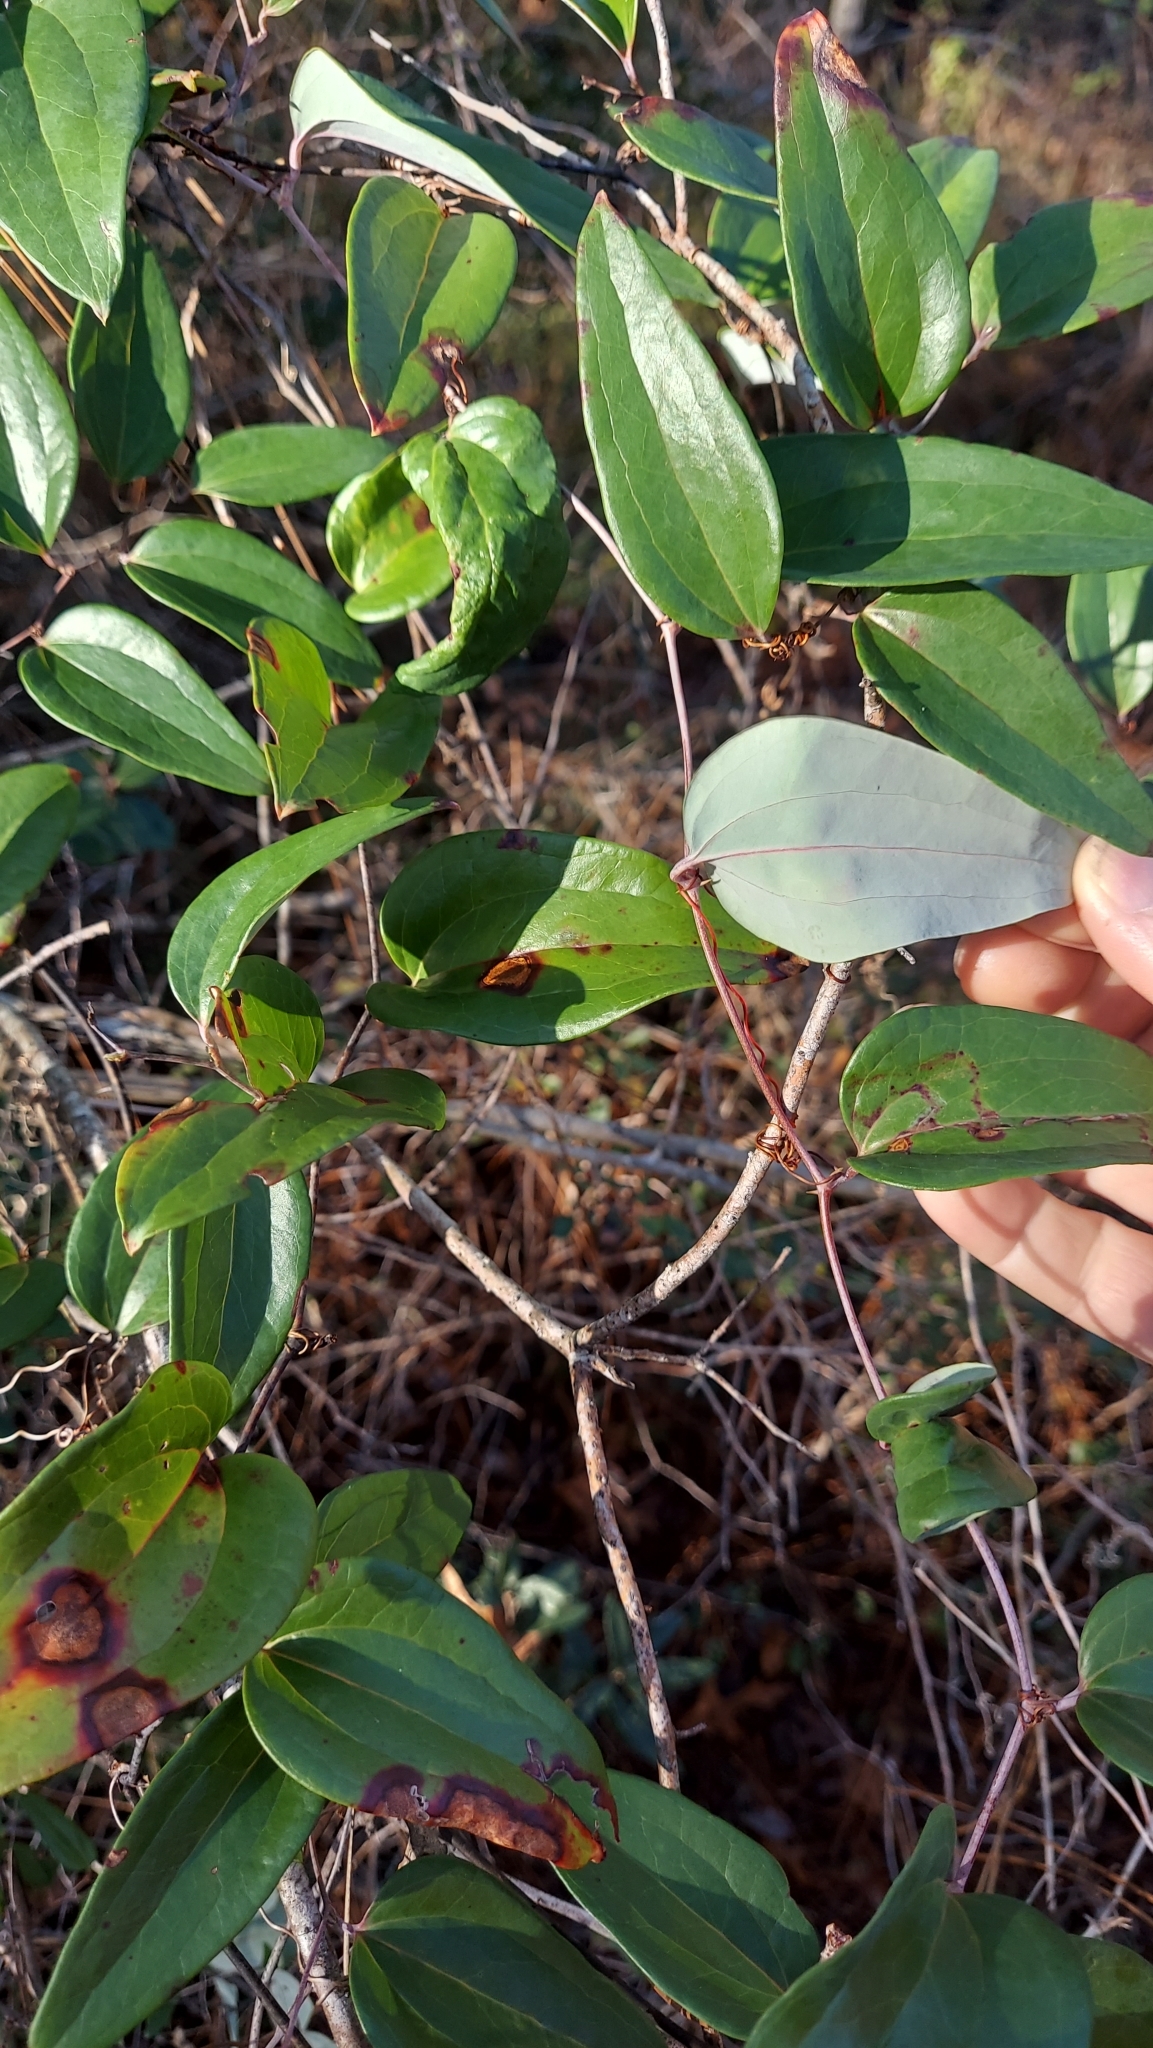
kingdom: Plantae
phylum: Tracheophyta
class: Liliopsida
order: Liliales
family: Smilacaceae
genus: Smilax
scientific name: Smilax glauca
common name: Cat greenbrier
